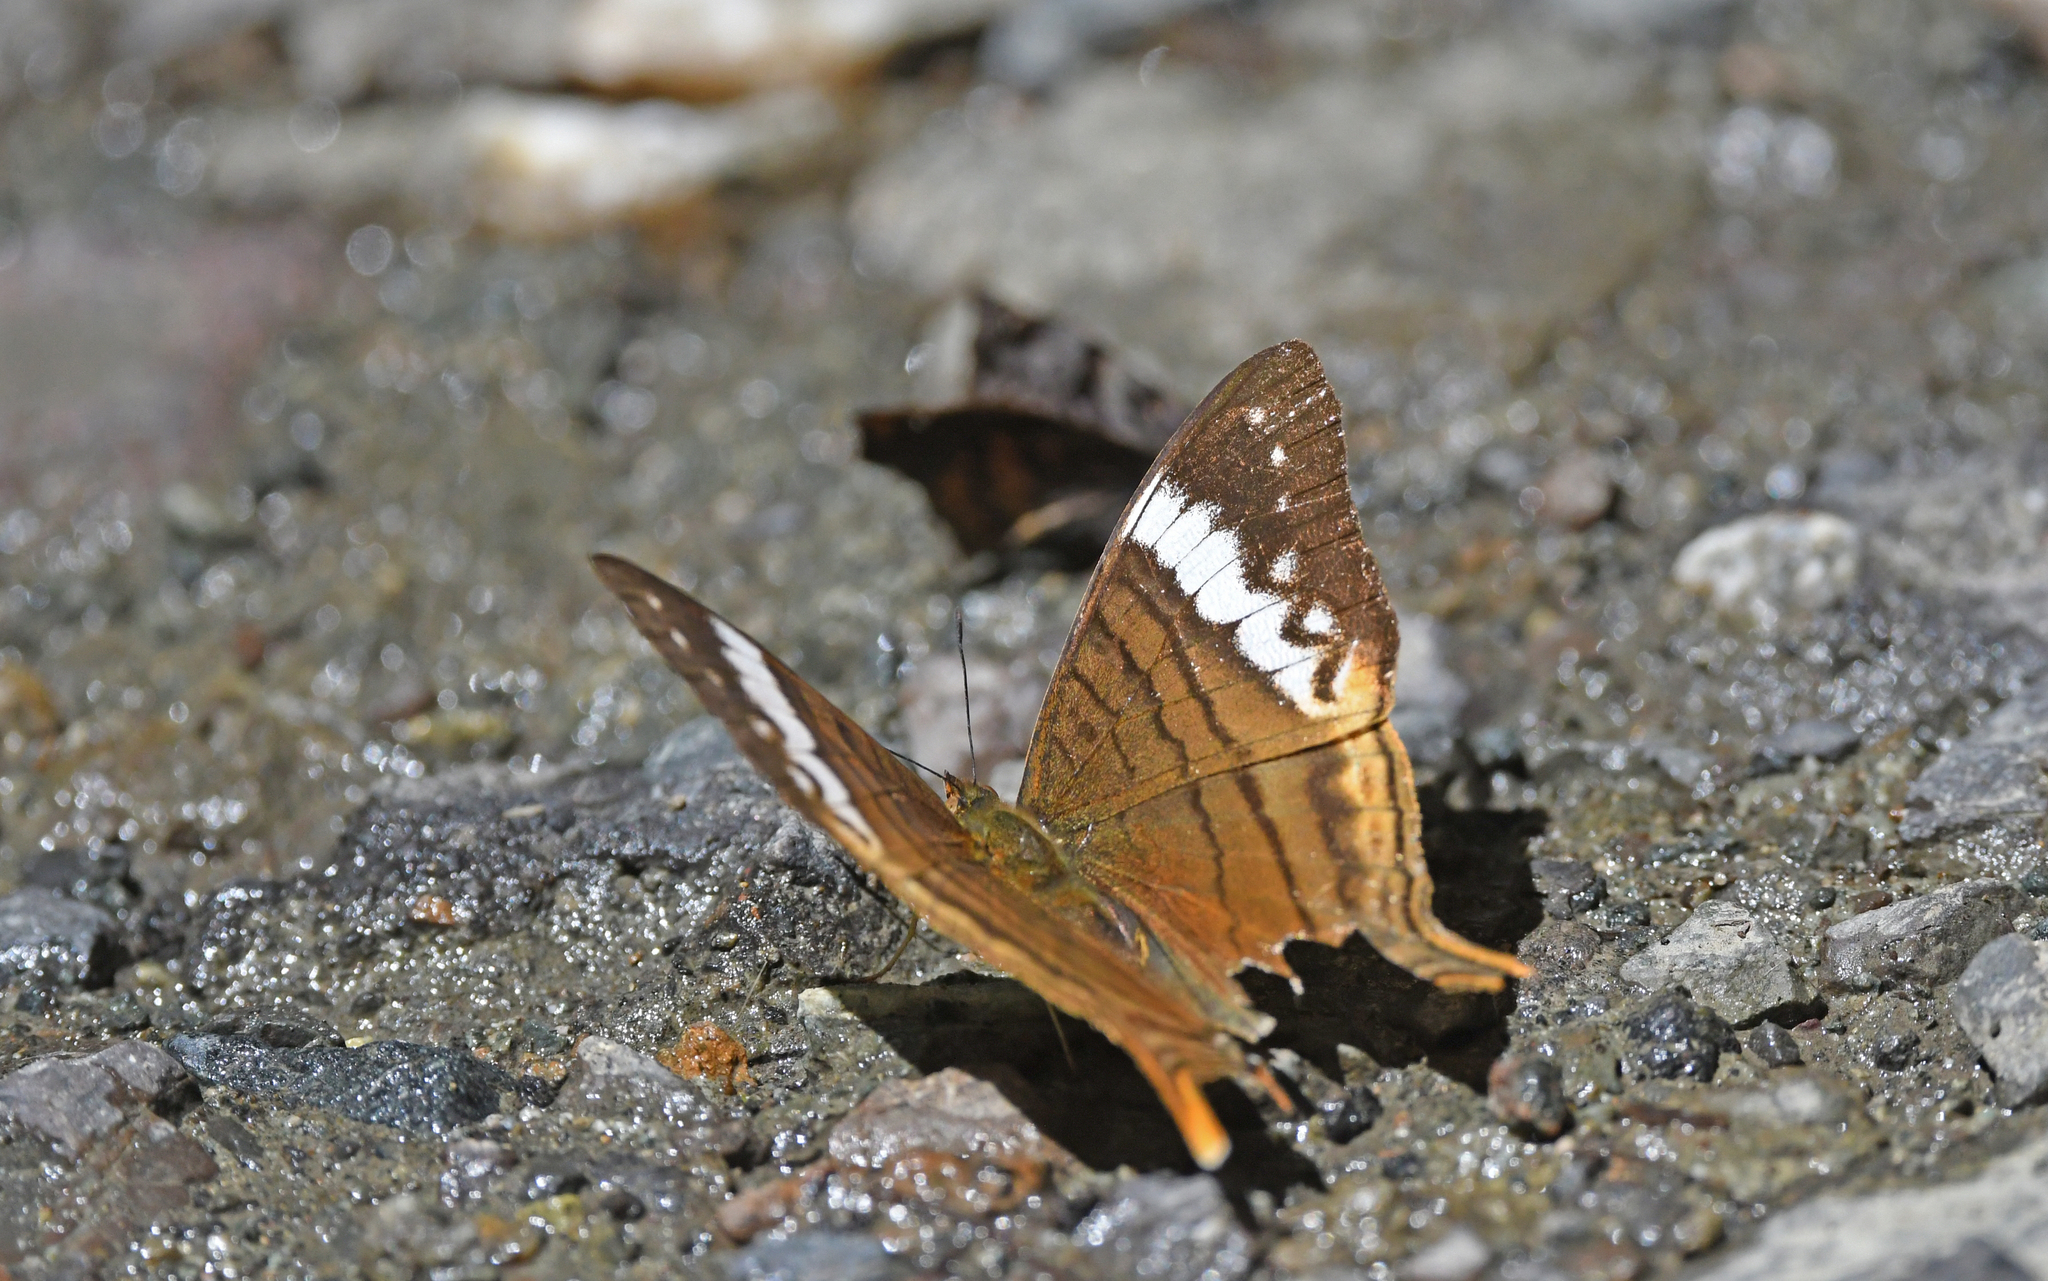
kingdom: Animalia
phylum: Arthropoda
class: Insecta
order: Lepidoptera
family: Nymphalidae
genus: Marpesia
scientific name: Marpesia corinna
